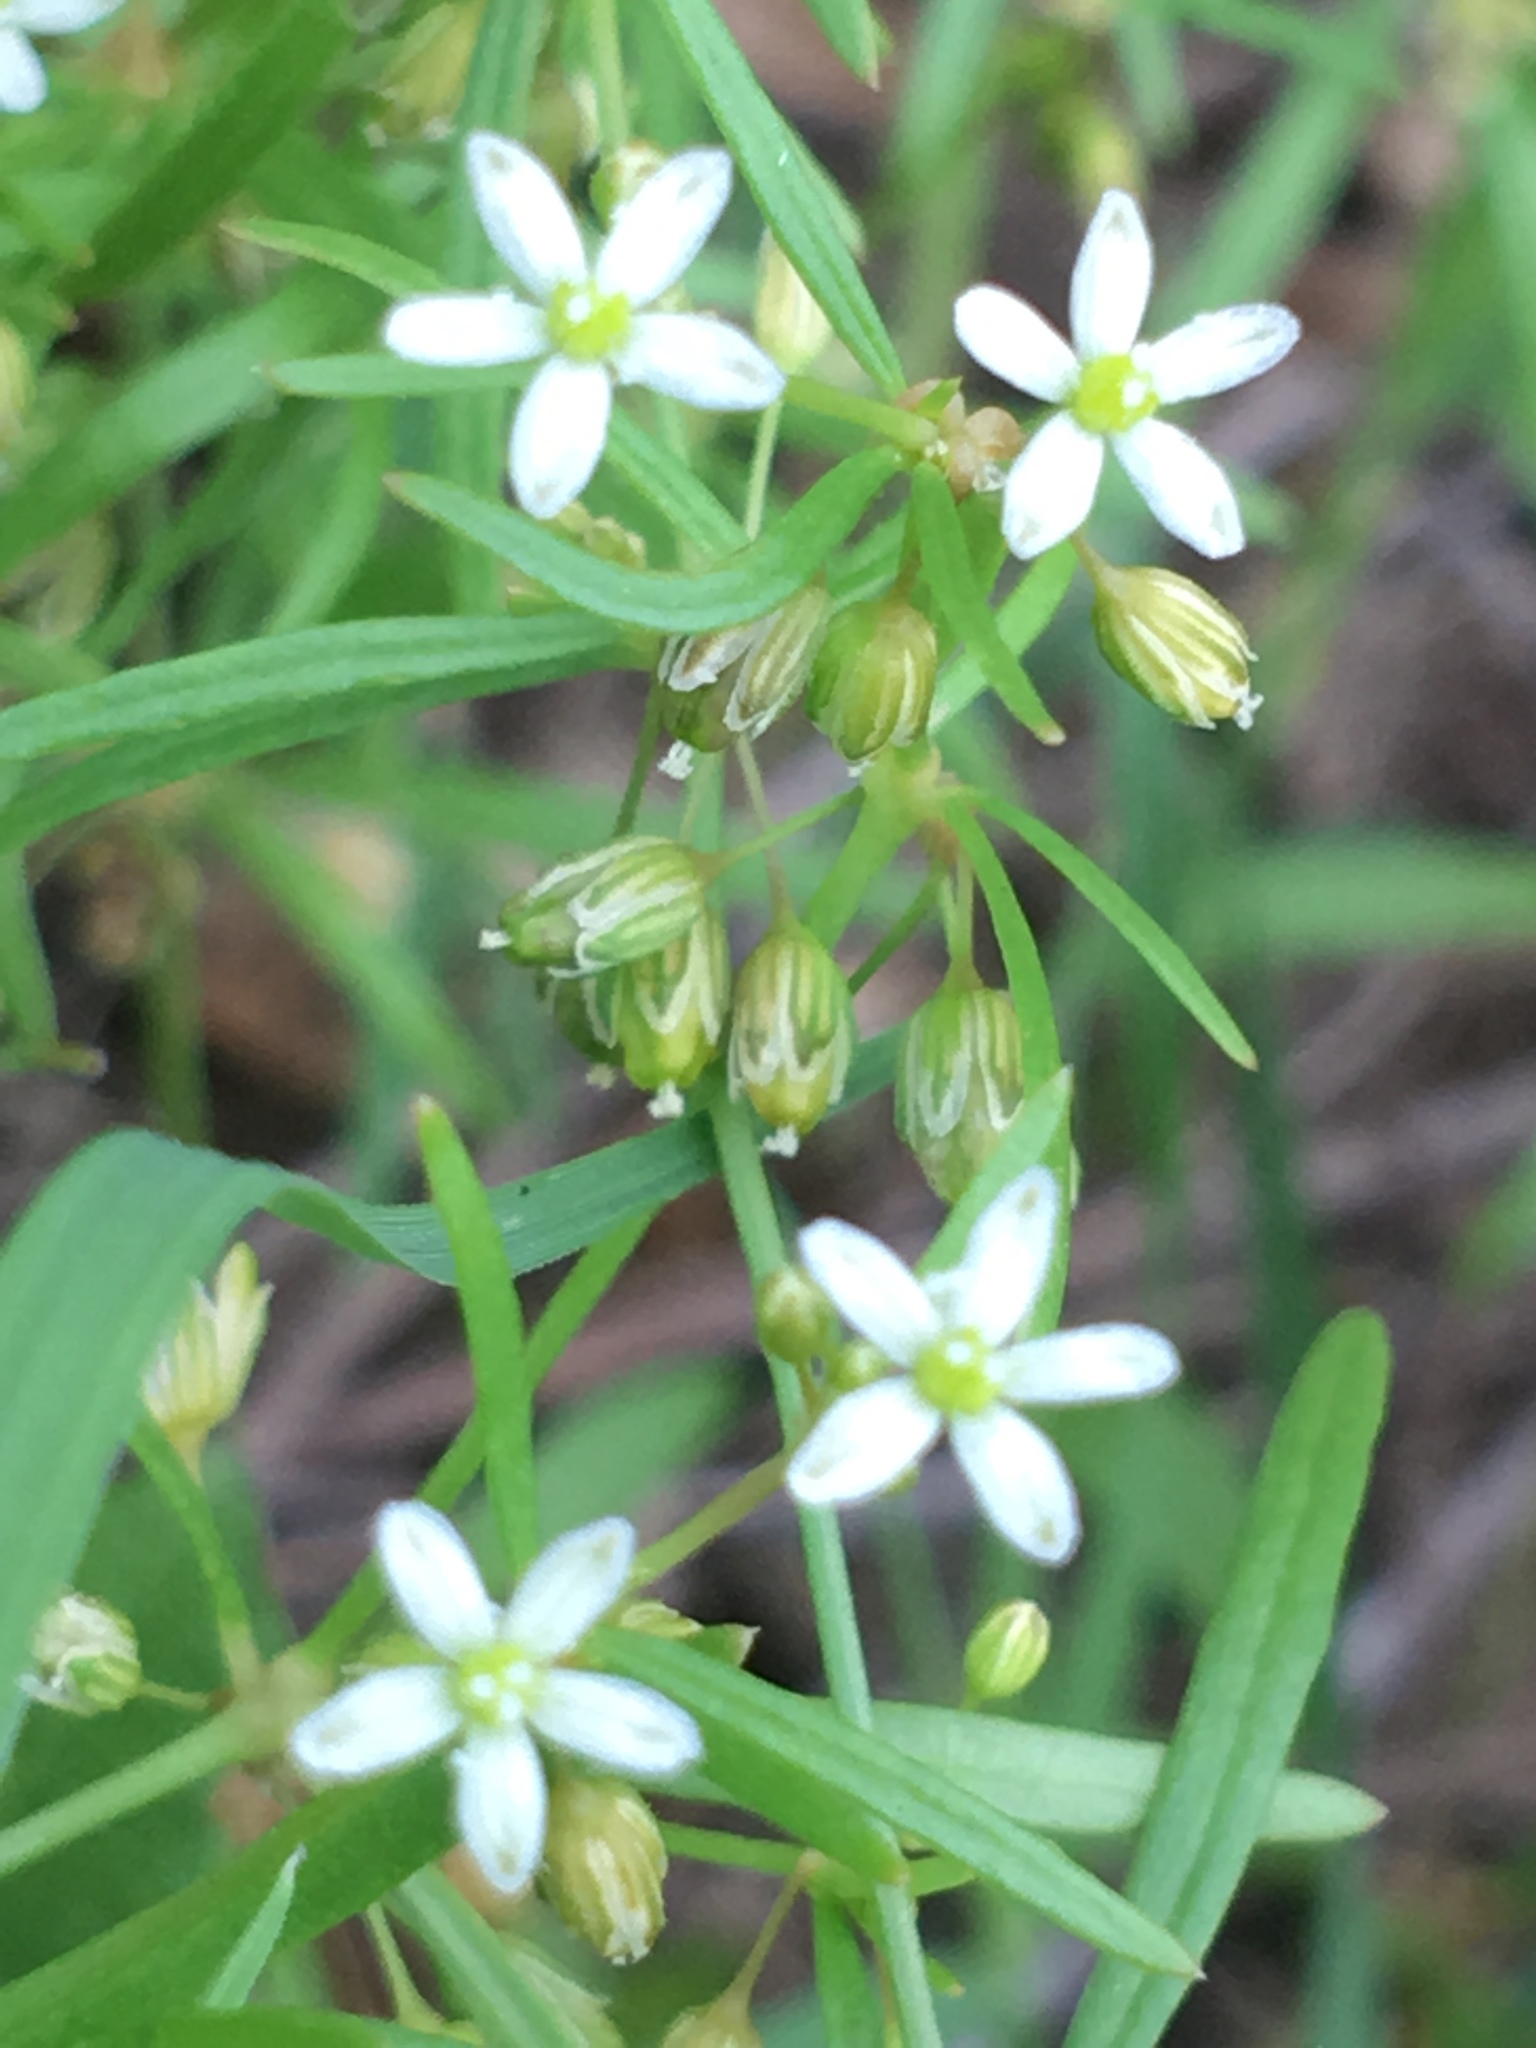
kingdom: Plantae
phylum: Tracheophyta
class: Magnoliopsida
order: Caryophyllales
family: Molluginaceae
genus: Mollugo
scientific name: Mollugo verticillata
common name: Green carpetweed
